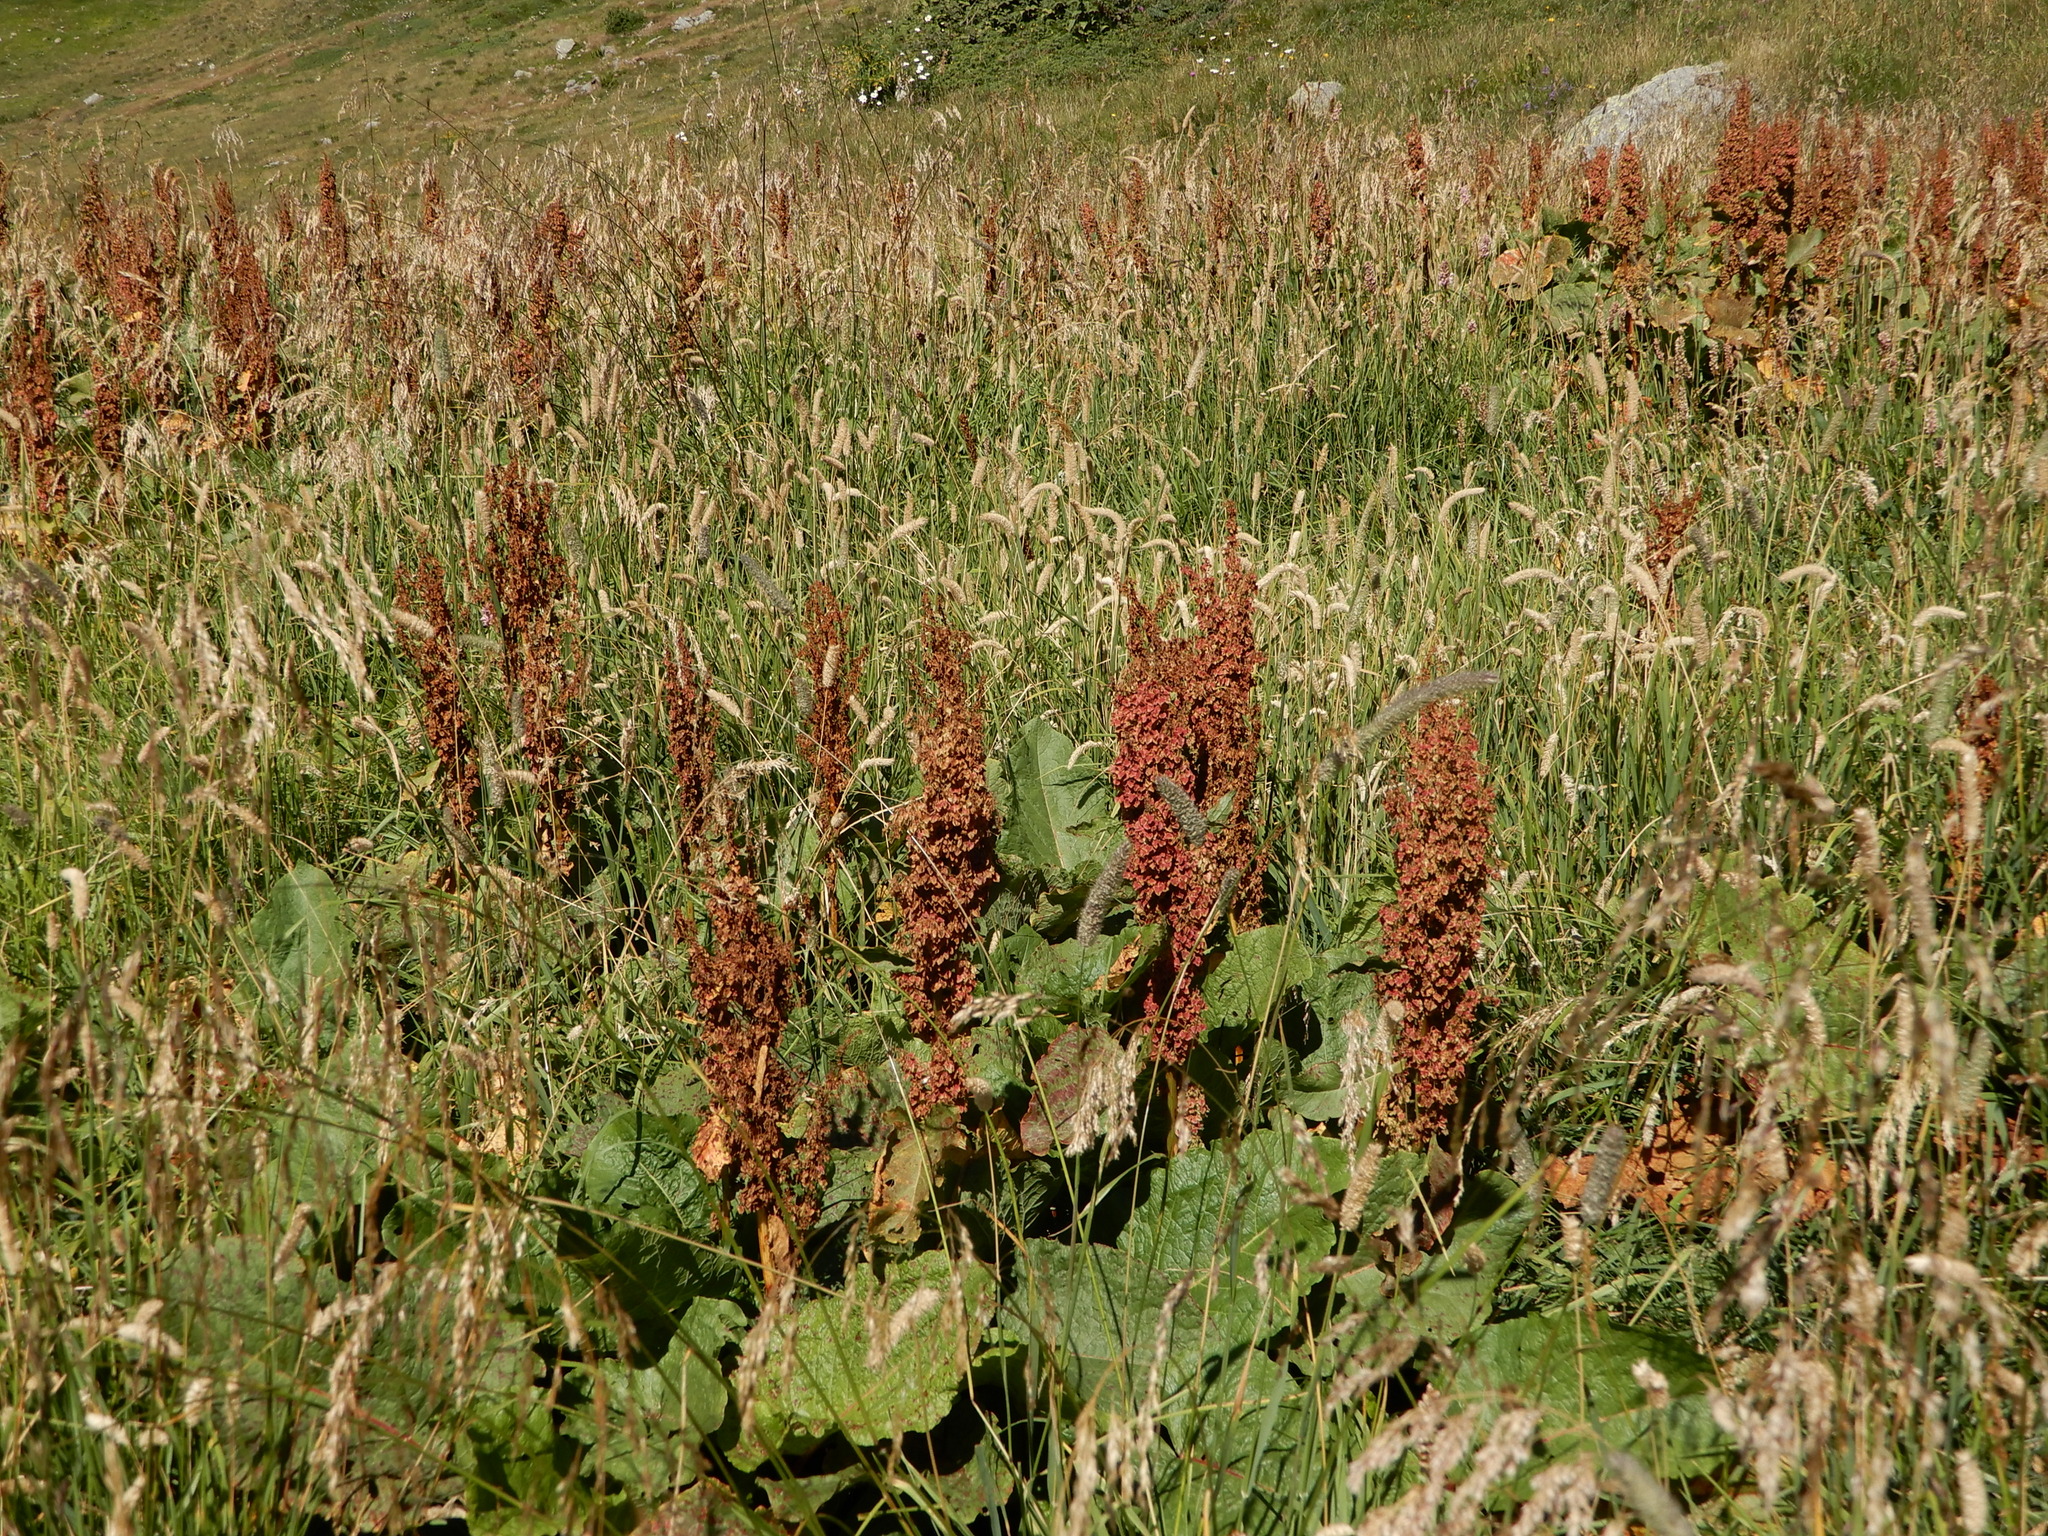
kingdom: Plantae
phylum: Tracheophyta
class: Magnoliopsida
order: Caryophyllales
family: Polygonaceae
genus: Rumex
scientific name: Rumex alpinus
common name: Alpine dock
